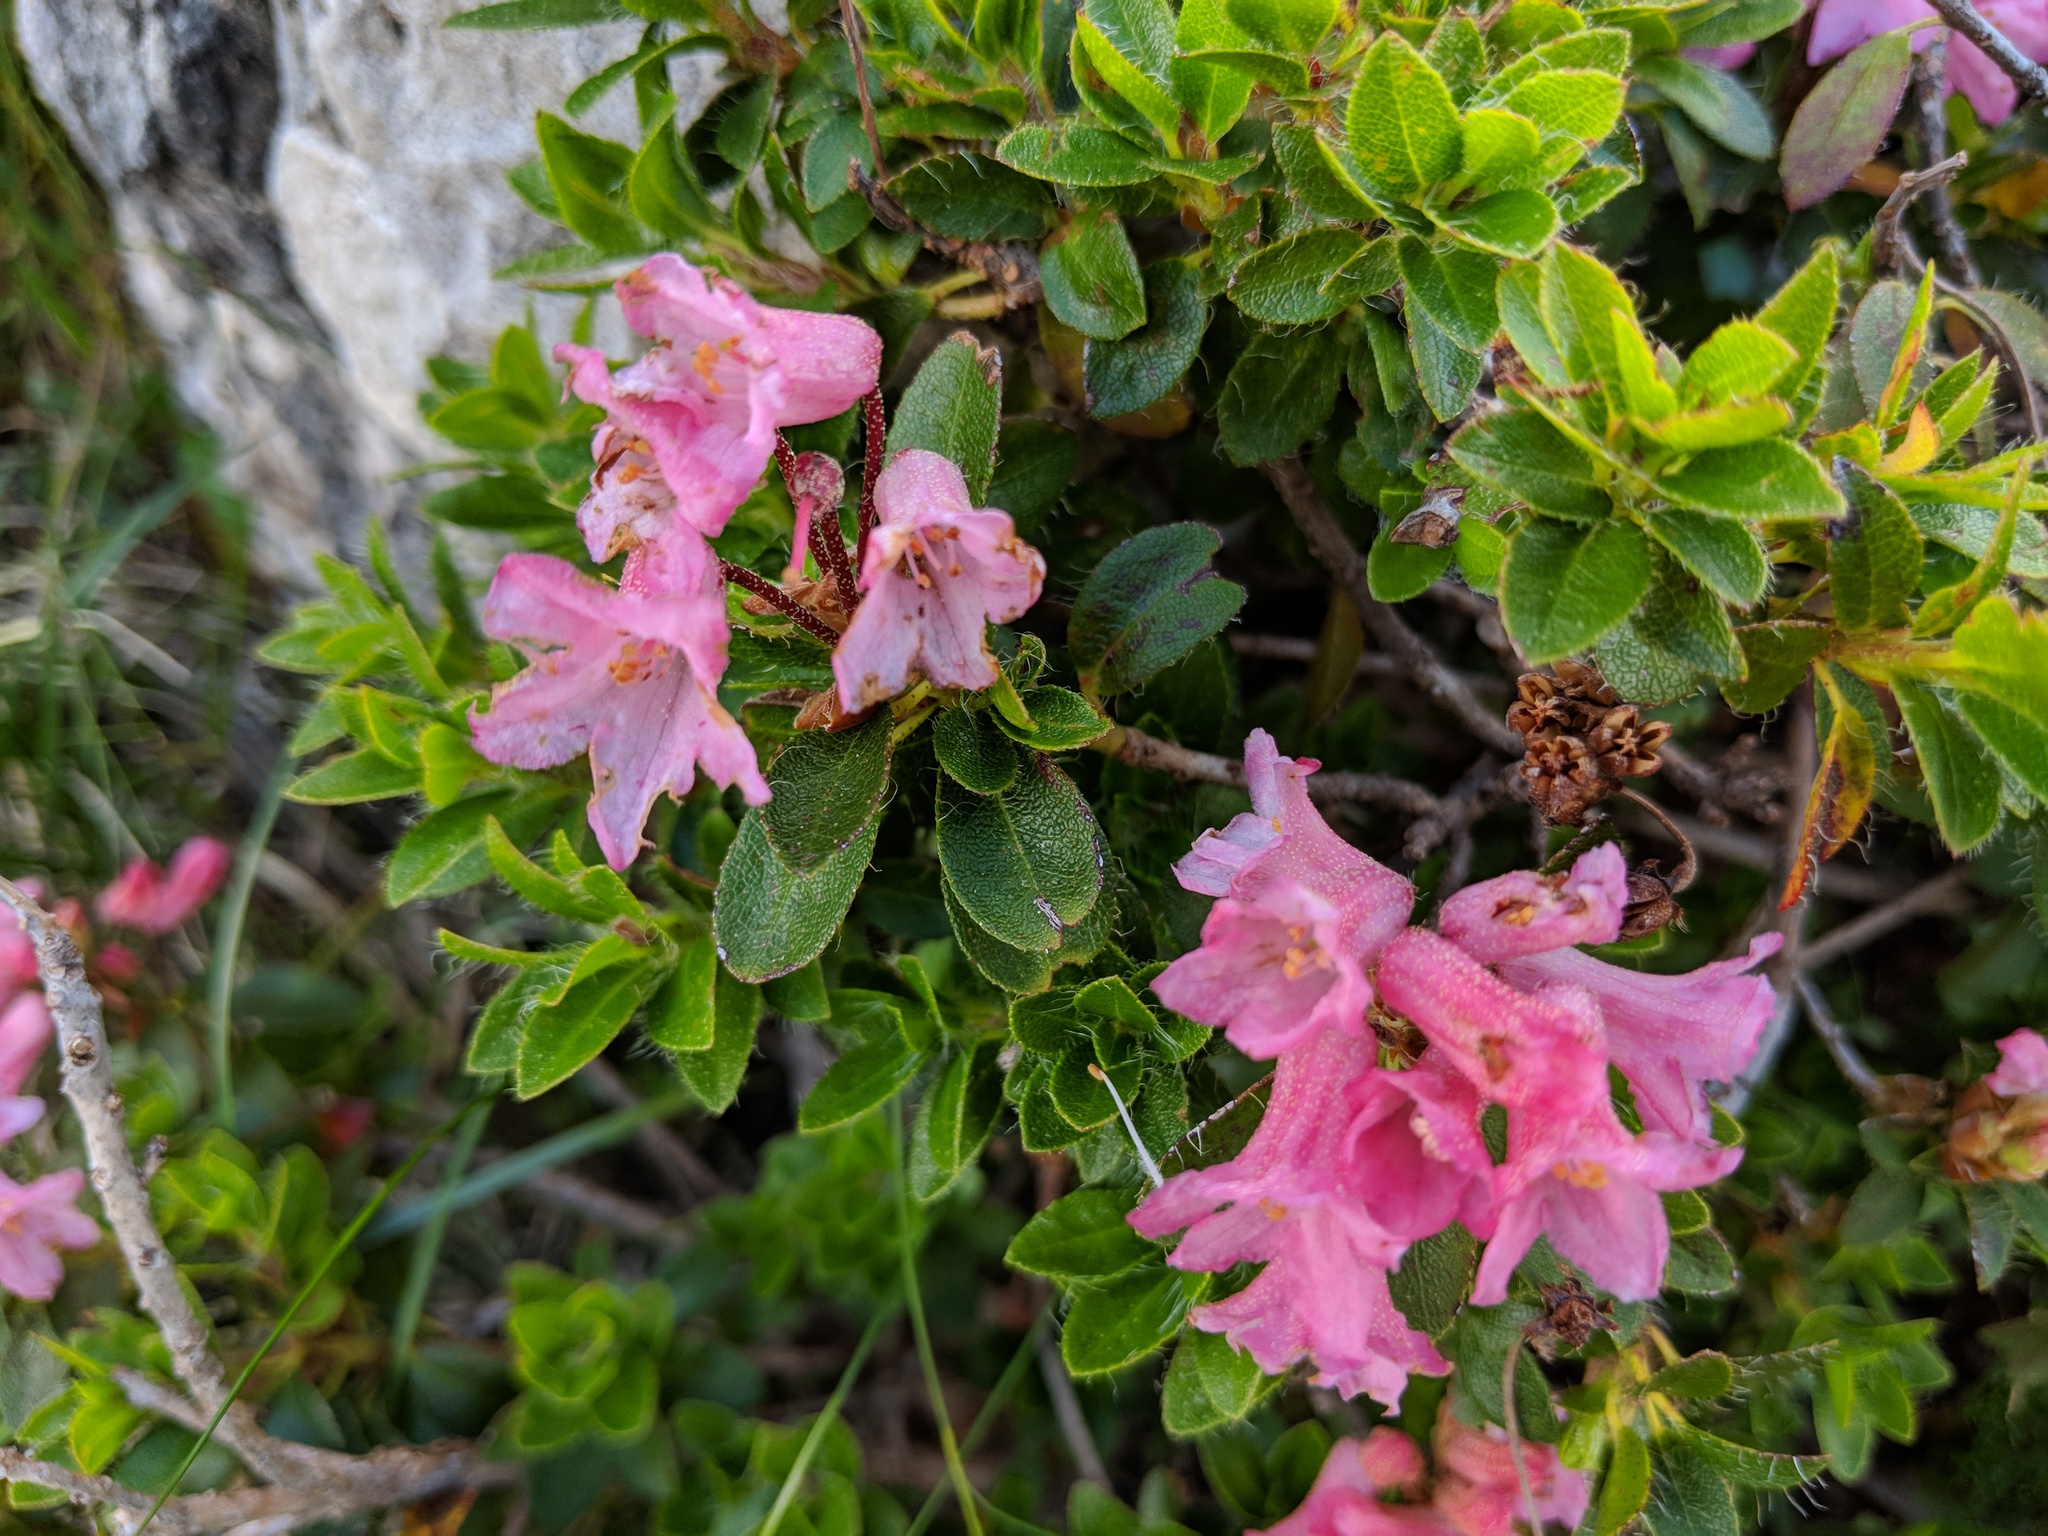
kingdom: Plantae
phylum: Tracheophyta
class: Magnoliopsida
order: Ericales
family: Ericaceae
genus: Rhododendron
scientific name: Rhododendron hirsutum
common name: Hairy alpenrose
